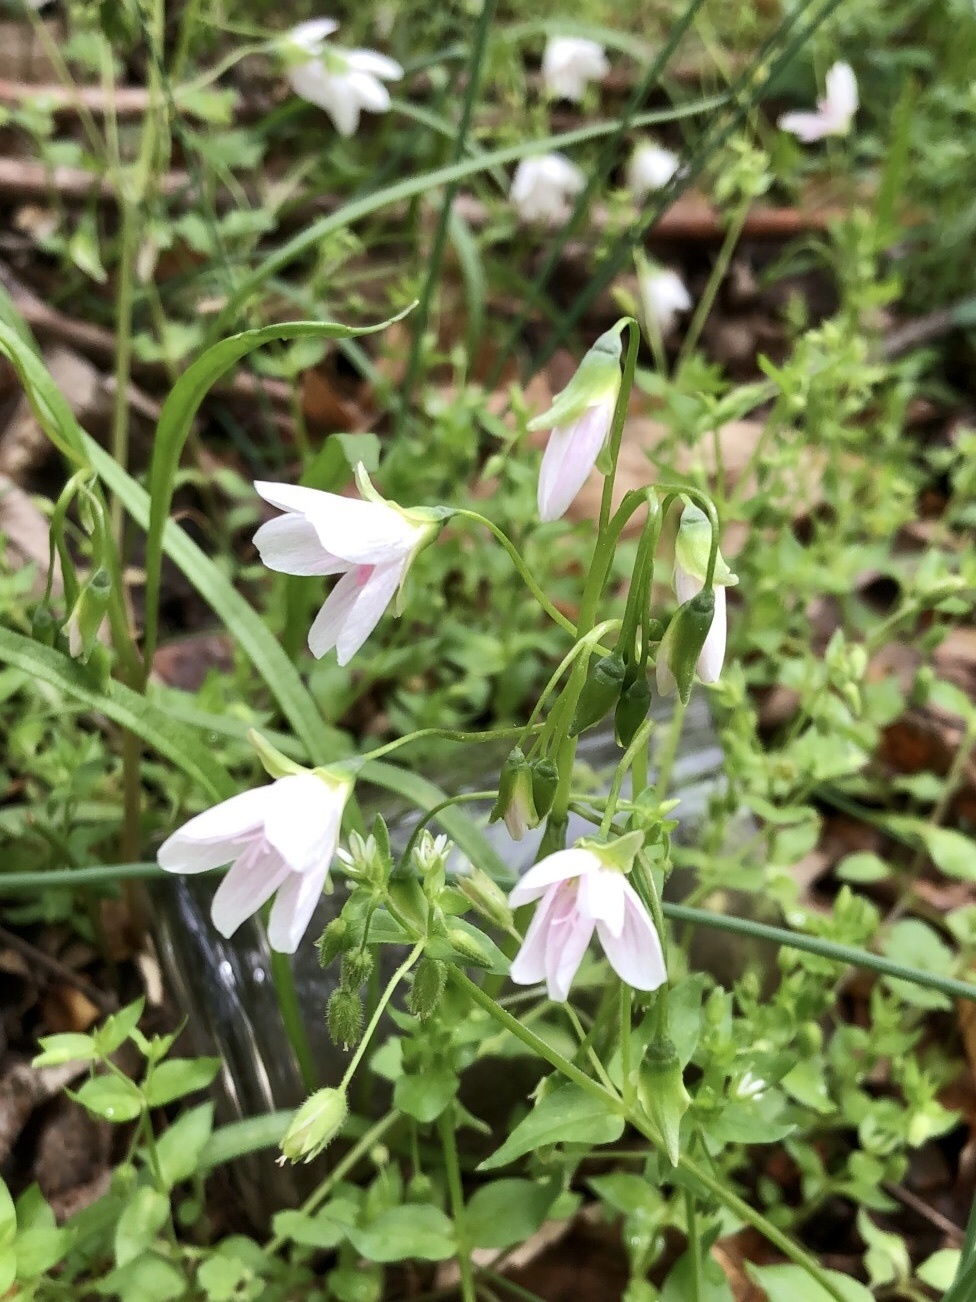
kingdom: Plantae
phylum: Tracheophyta
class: Magnoliopsida
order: Caryophyllales
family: Montiaceae
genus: Claytonia
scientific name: Claytonia virginica
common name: Virginia springbeauty
